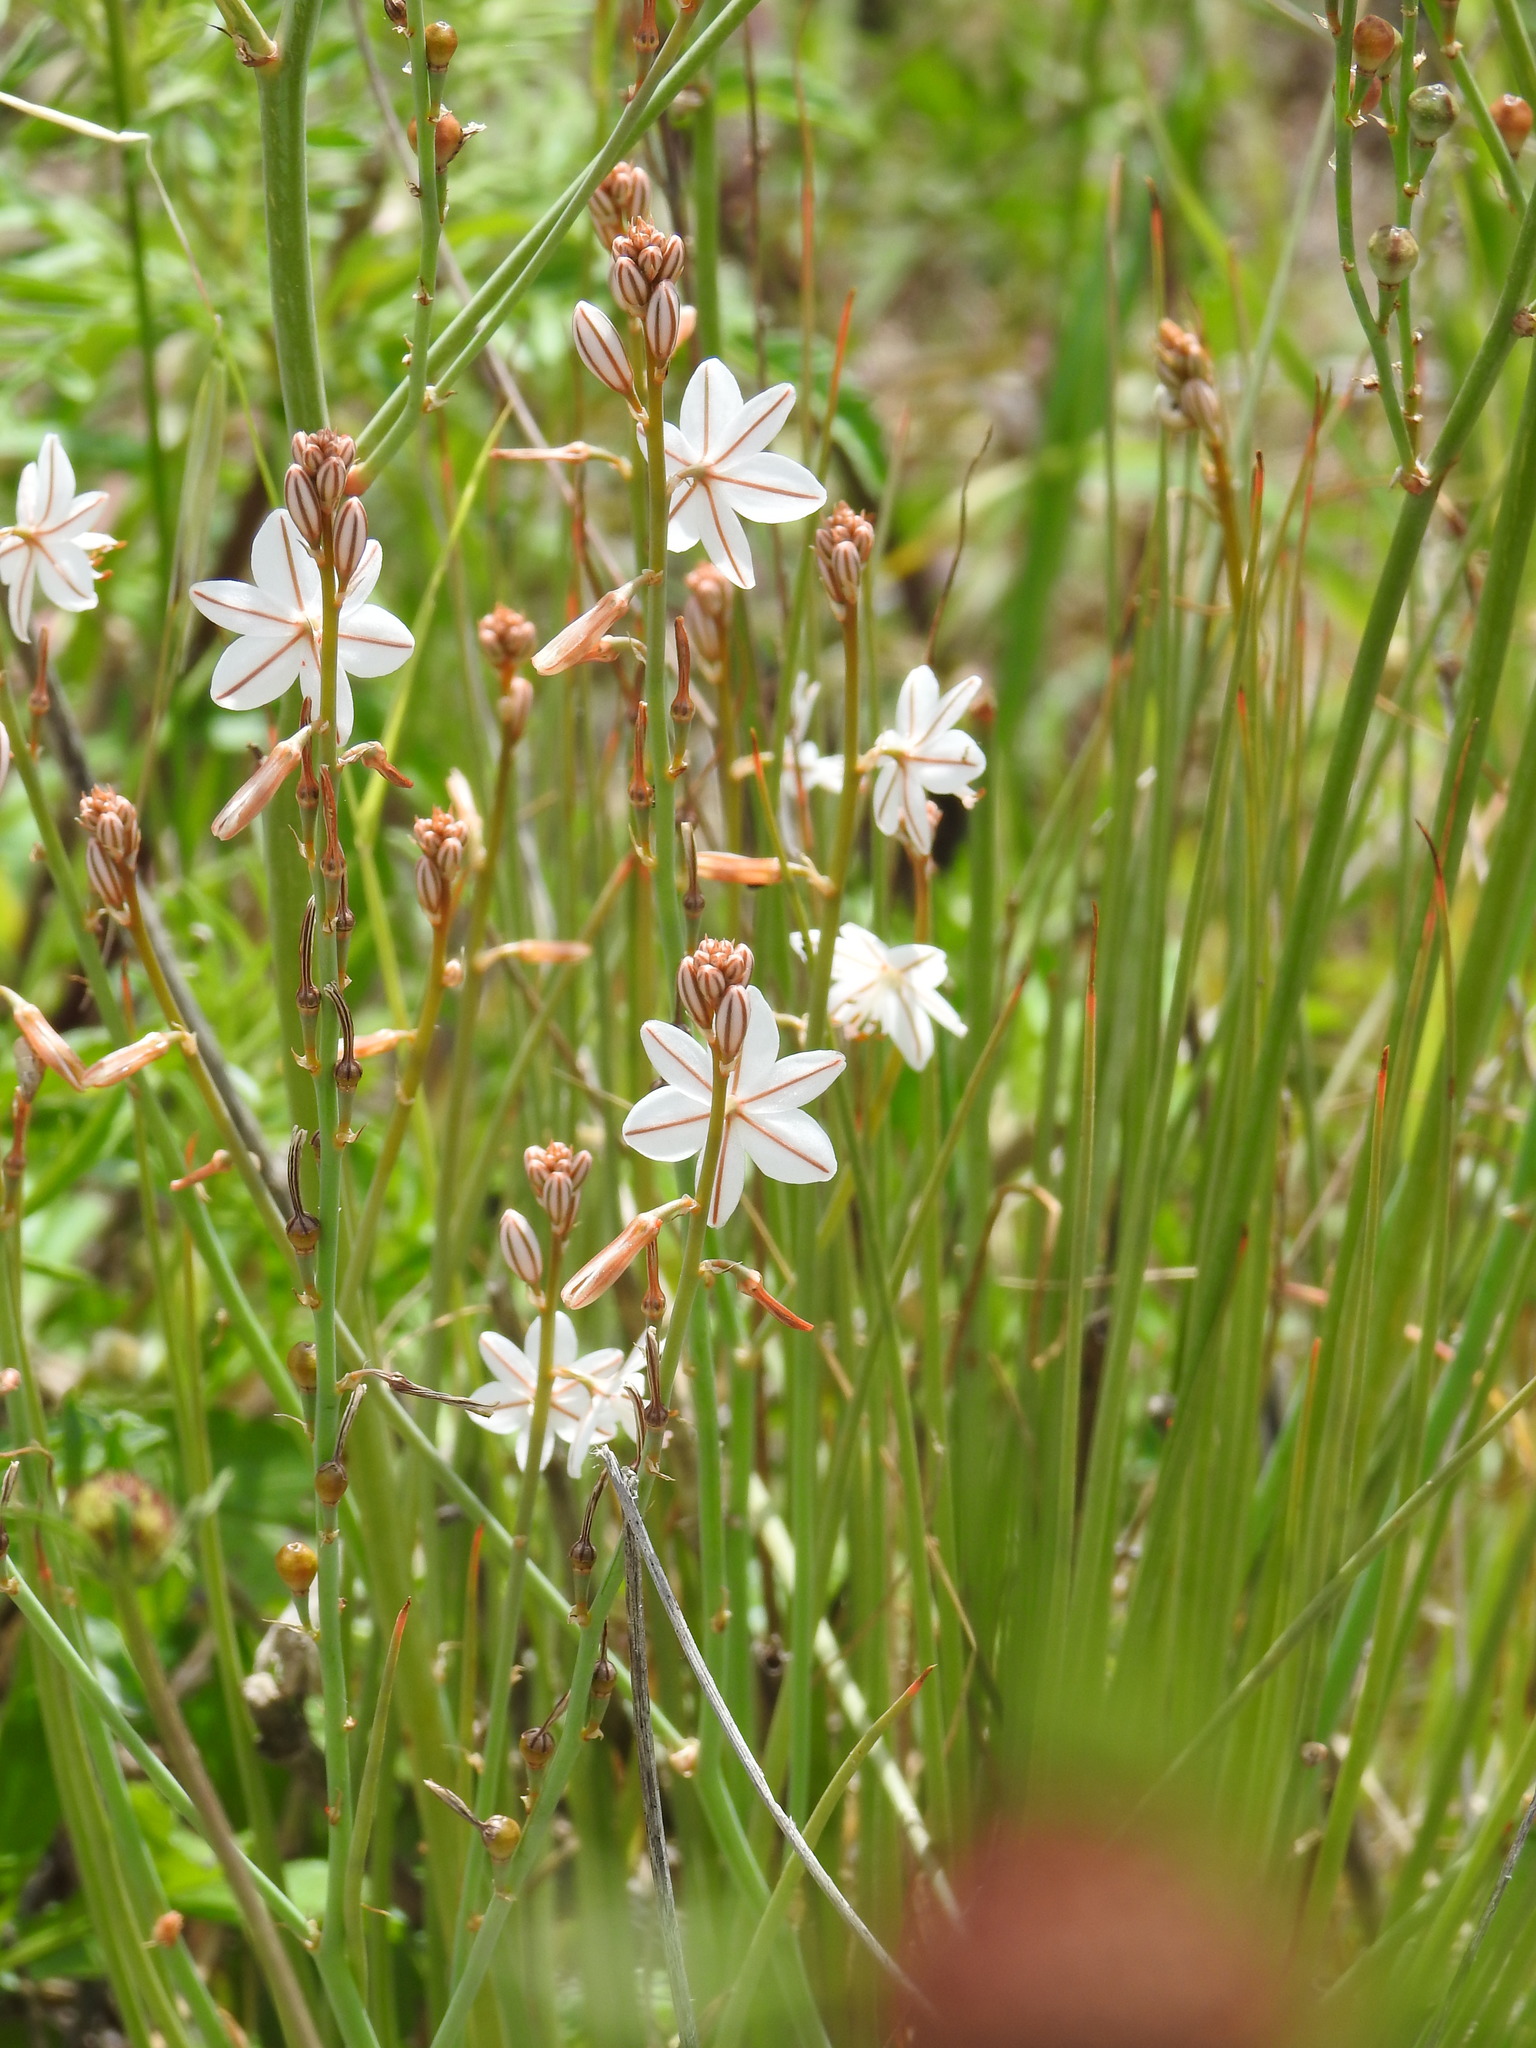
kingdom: Plantae
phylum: Tracheophyta
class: Liliopsida
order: Asparagales
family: Asphodelaceae
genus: Asphodelus
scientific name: Asphodelus fistulosus
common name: Onionweed
